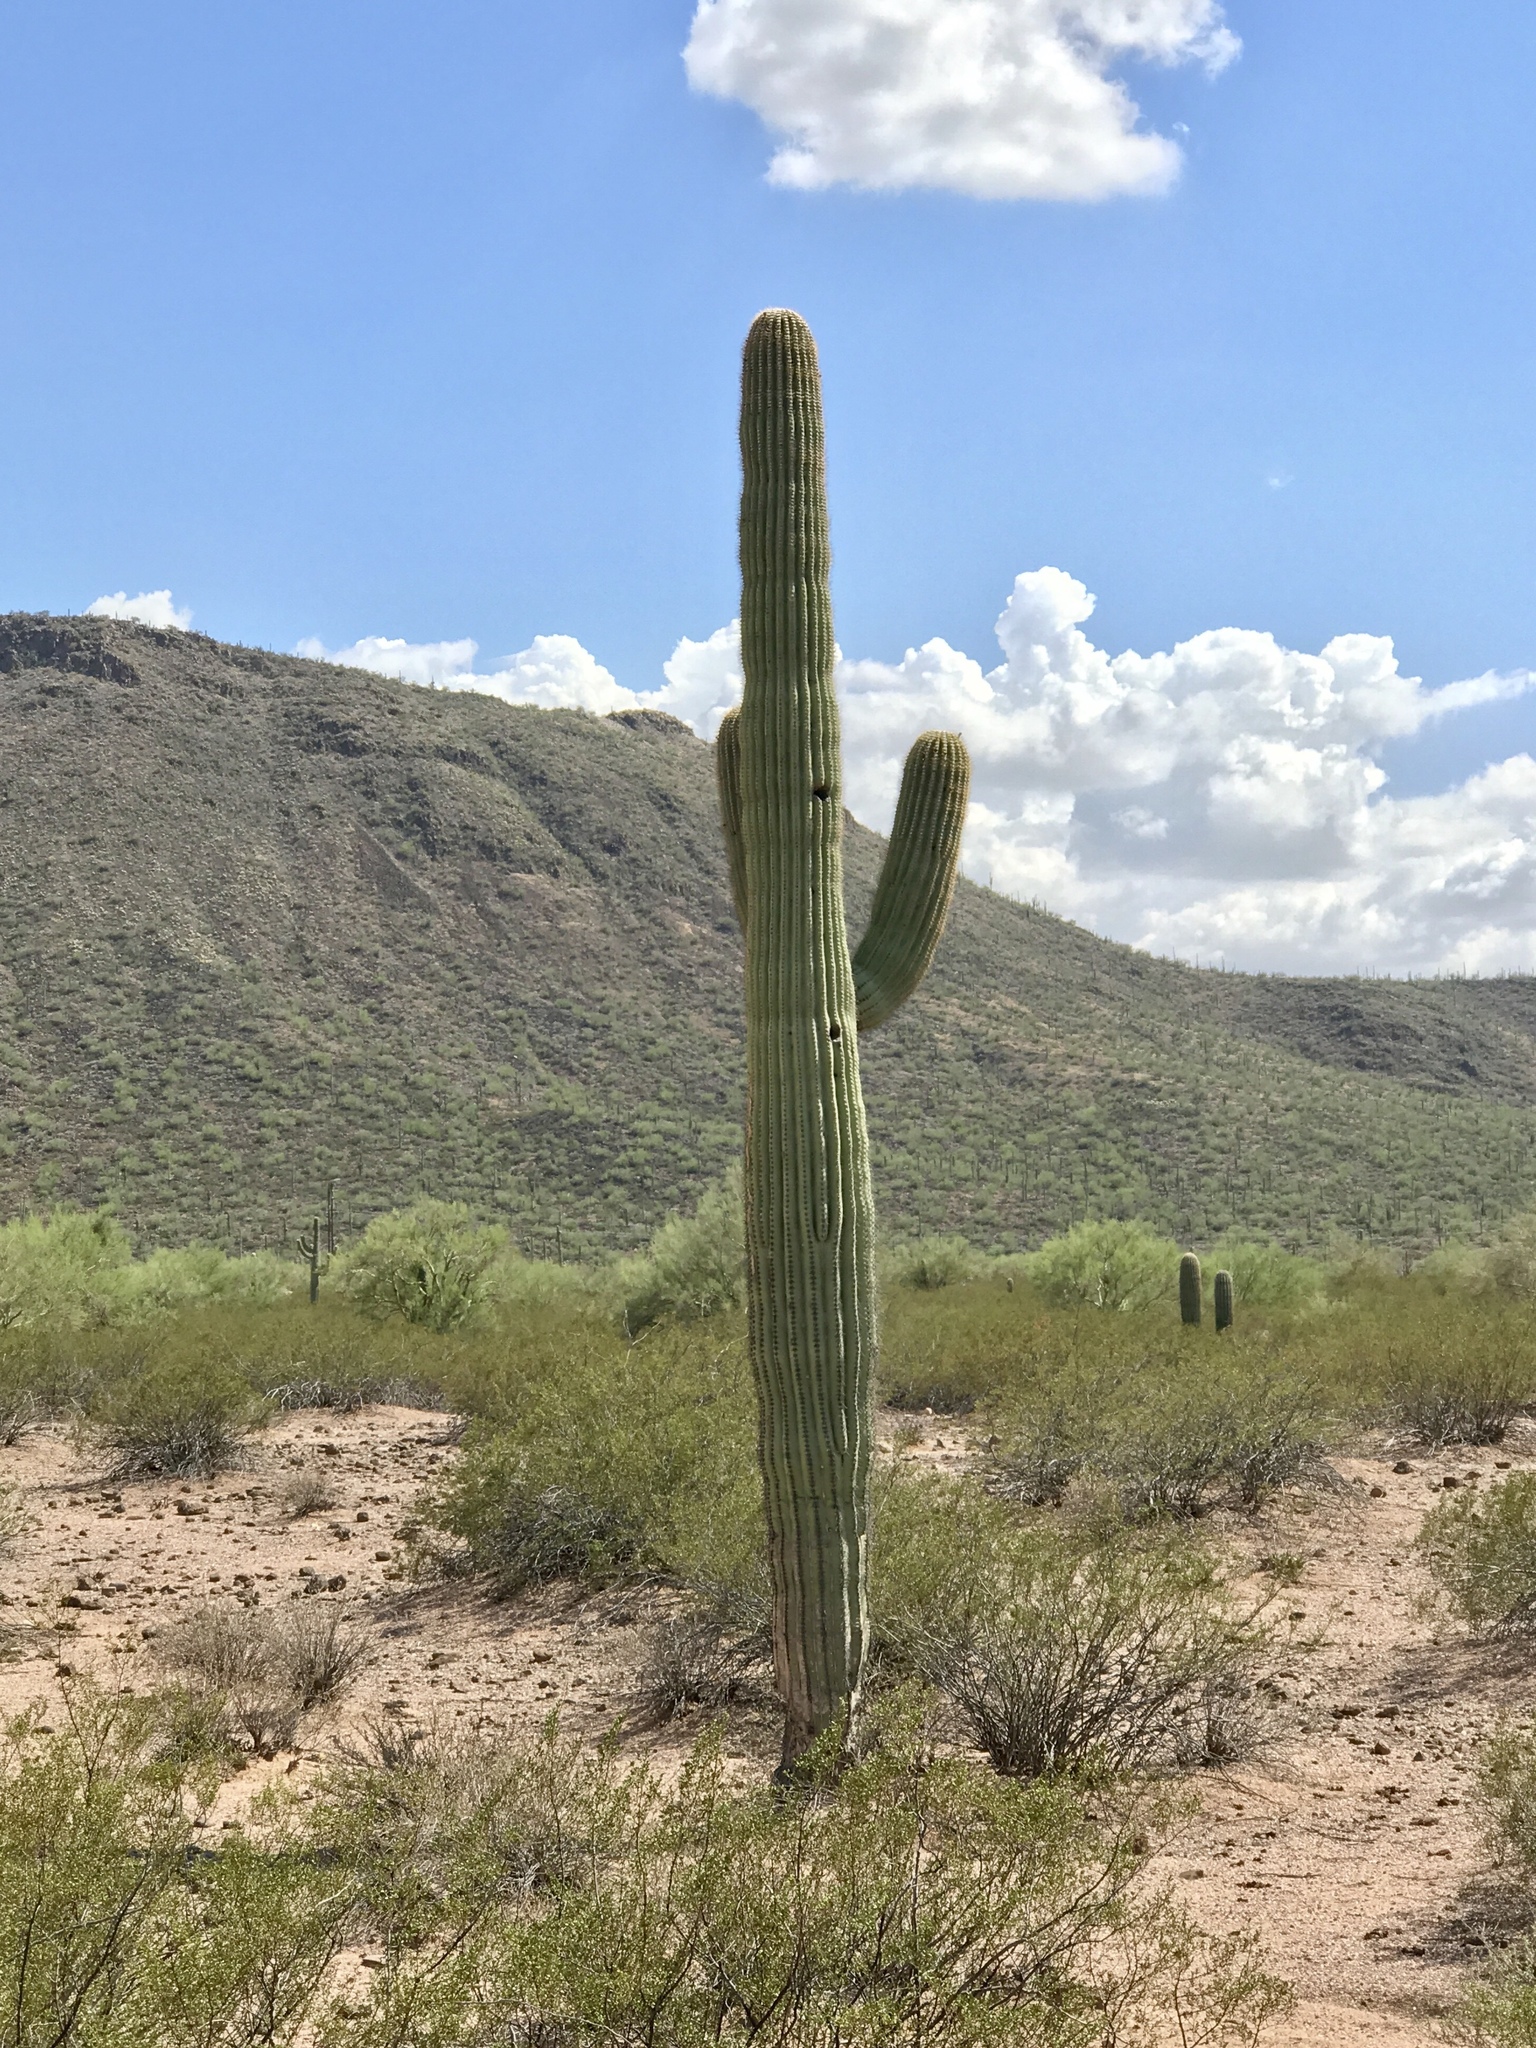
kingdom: Plantae
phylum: Tracheophyta
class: Magnoliopsida
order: Caryophyllales
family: Cactaceae
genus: Carnegiea
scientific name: Carnegiea gigantea
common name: Saguaro
